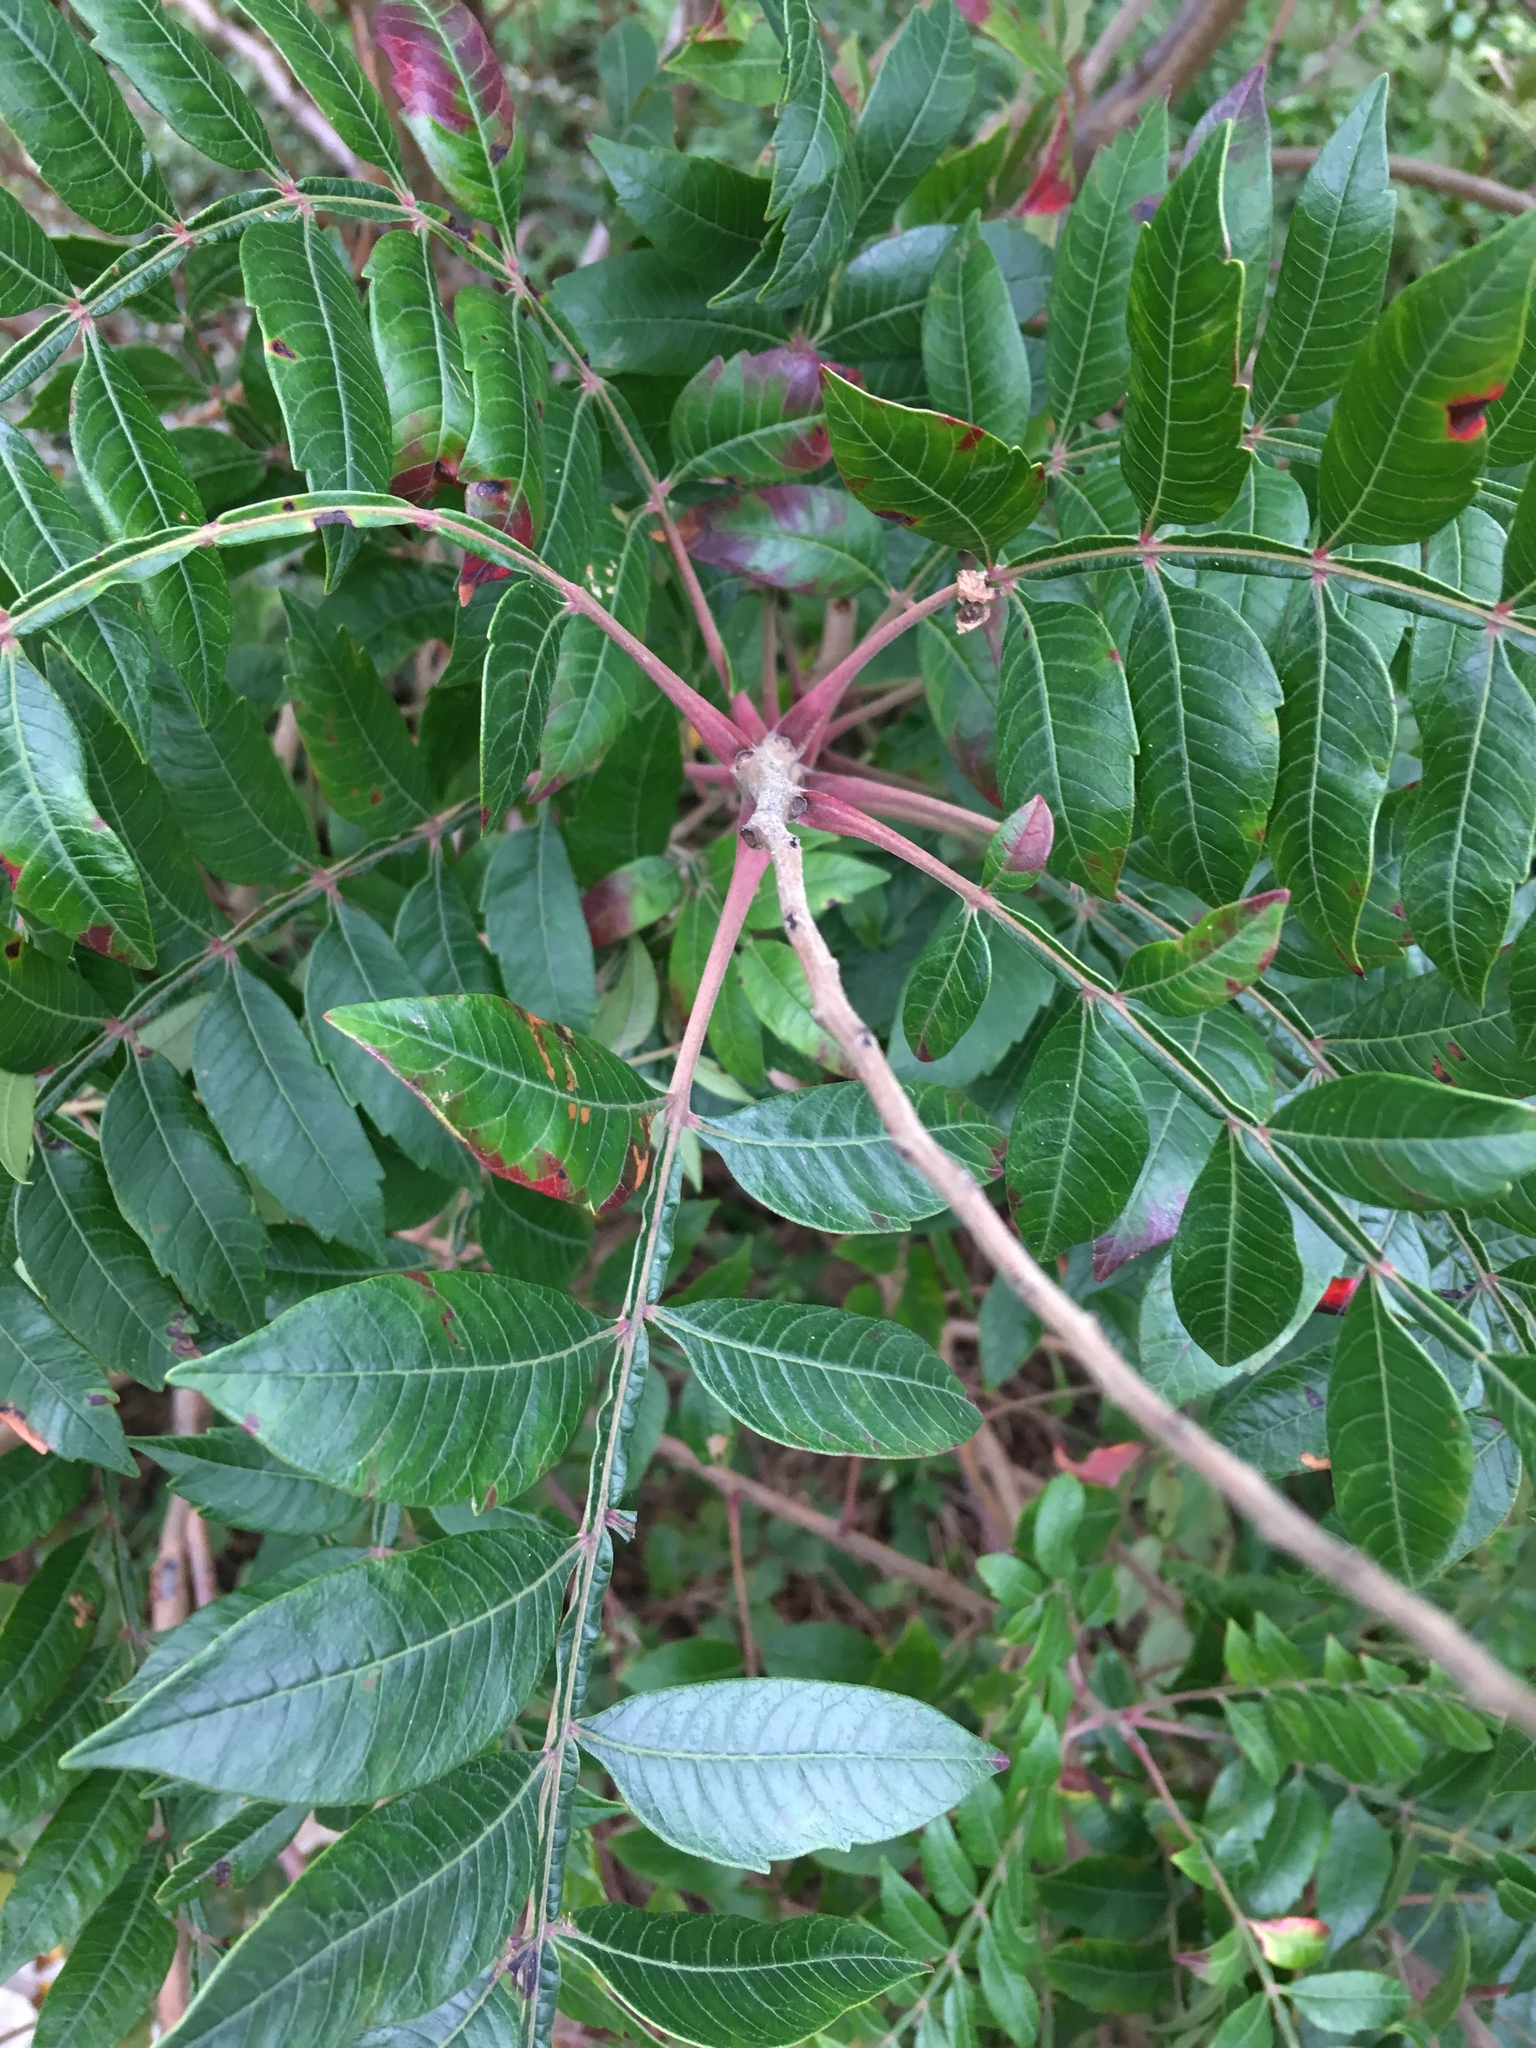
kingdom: Plantae
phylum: Tracheophyta
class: Magnoliopsida
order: Sapindales
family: Anacardiaceae
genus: Rhus
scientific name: Rhus copallina
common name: Shining sumac
